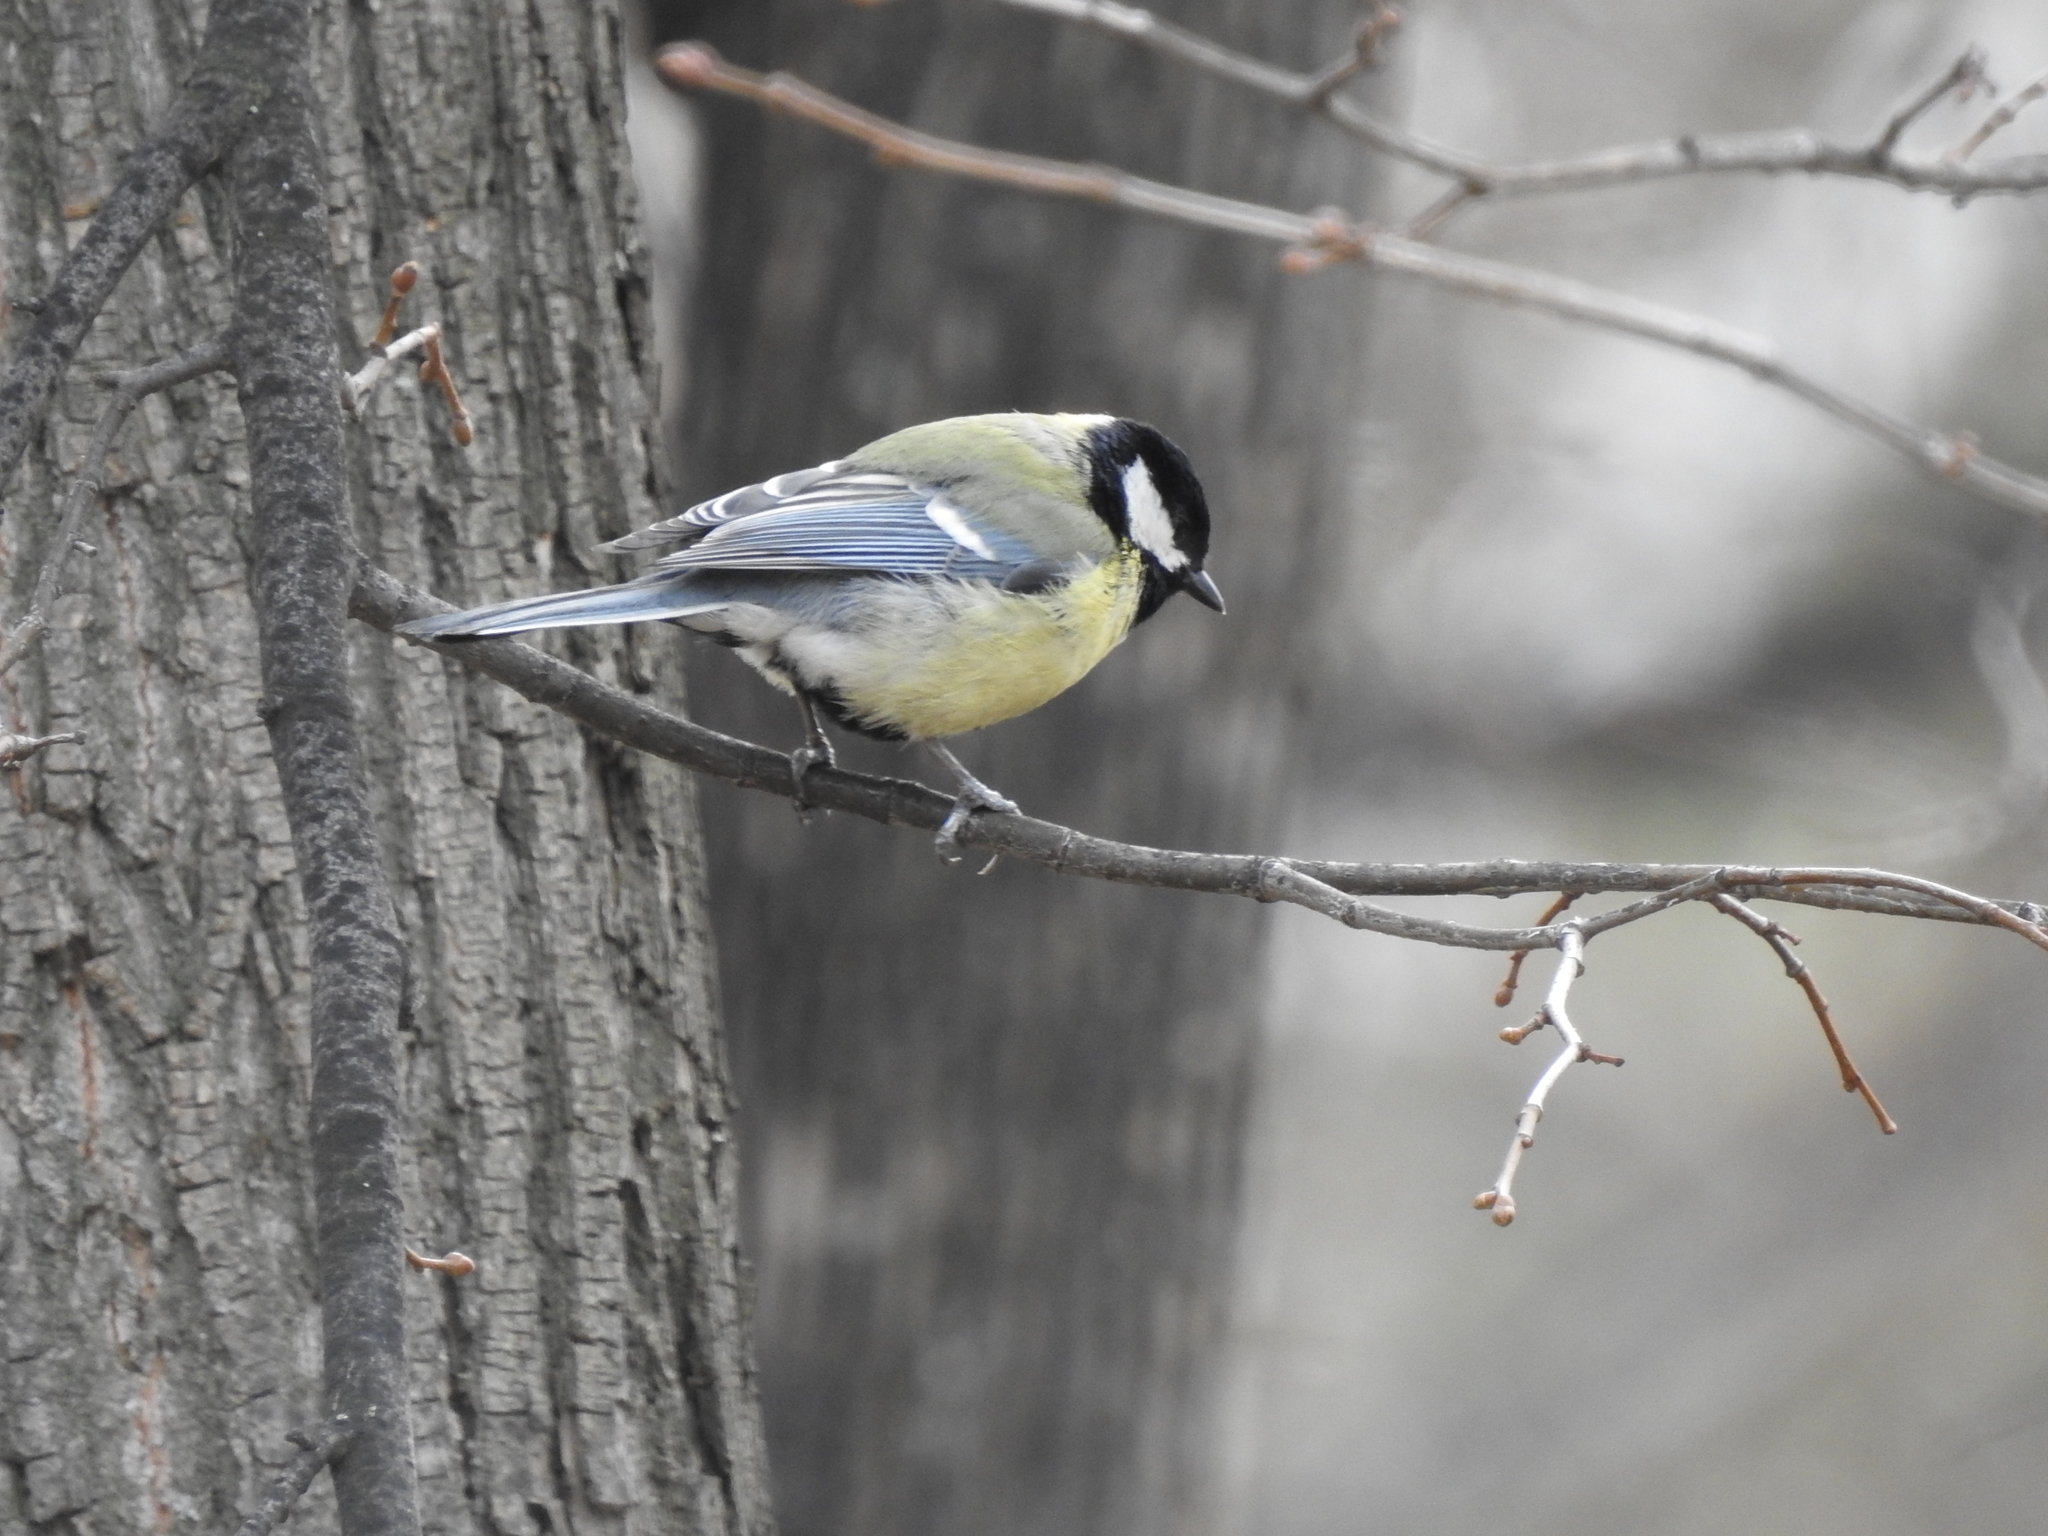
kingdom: Animalia
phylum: Chordata
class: Aves
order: Passeriformes
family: Paridae
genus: Parus
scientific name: Parus major
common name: Great tit
